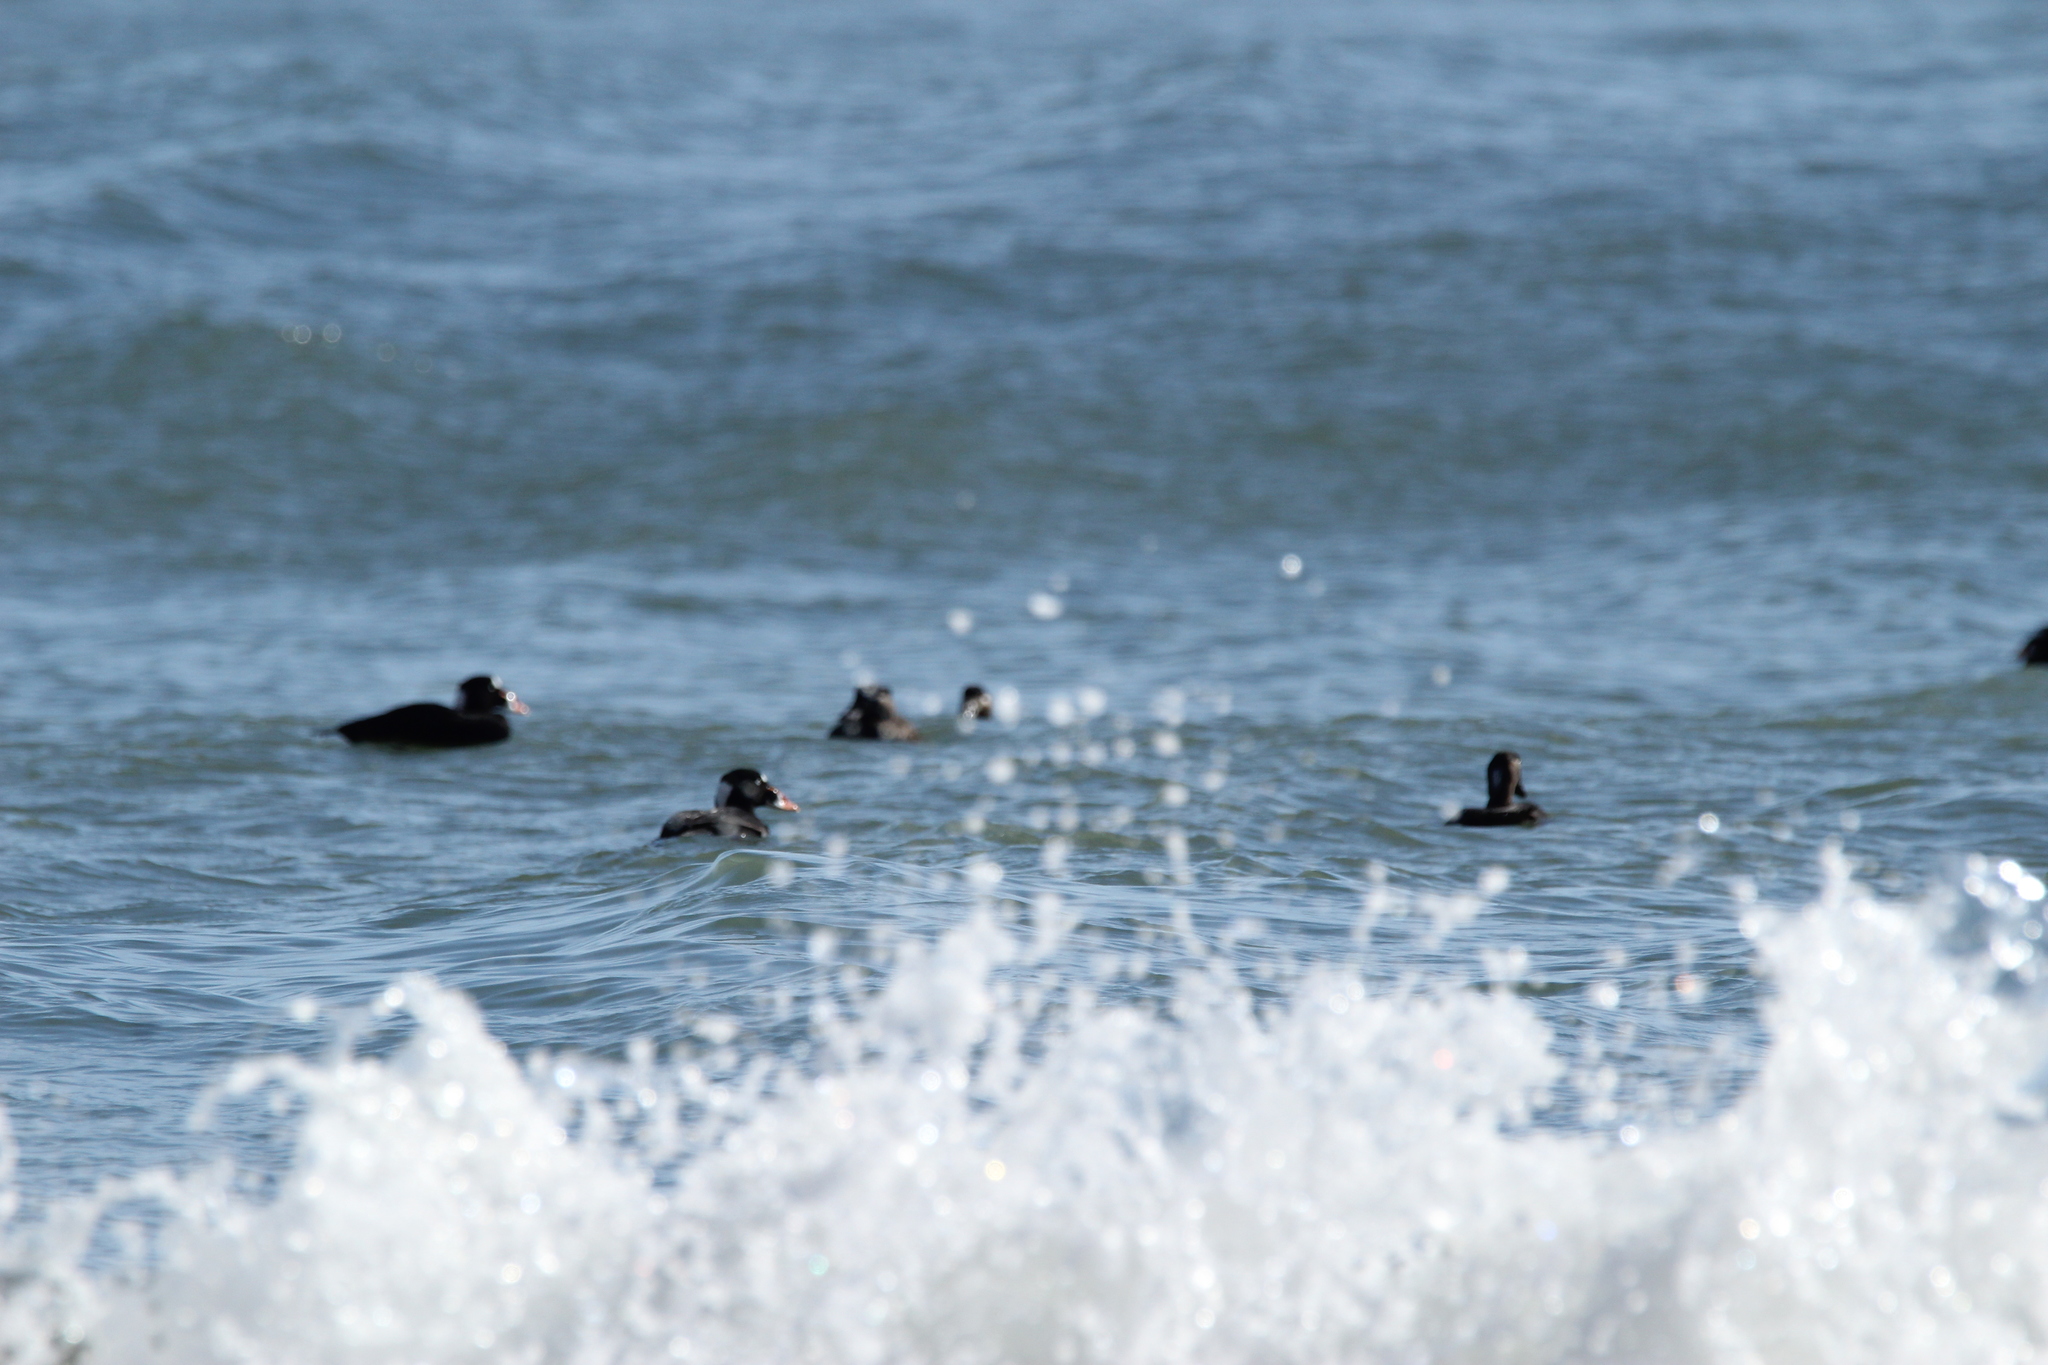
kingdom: Animalia
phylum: Chordata
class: Aves
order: Anseriformes
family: Anatidae
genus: Melanitta
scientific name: Melanitta perspicillata
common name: Surf scoter
